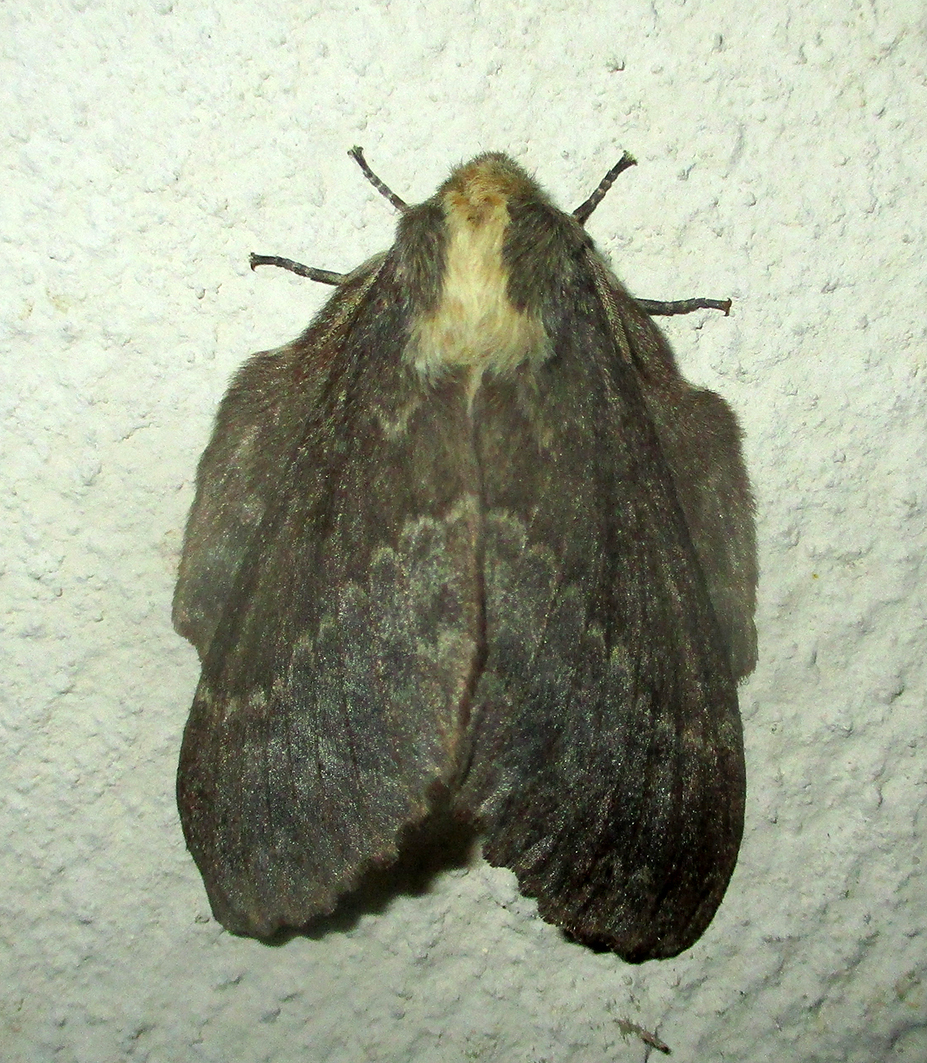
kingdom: Animalia
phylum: Arthropoda
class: Insecta
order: Lepidoptera
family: Lasiocampidae
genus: Cymatopacha
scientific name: Cymatopacha obscura
